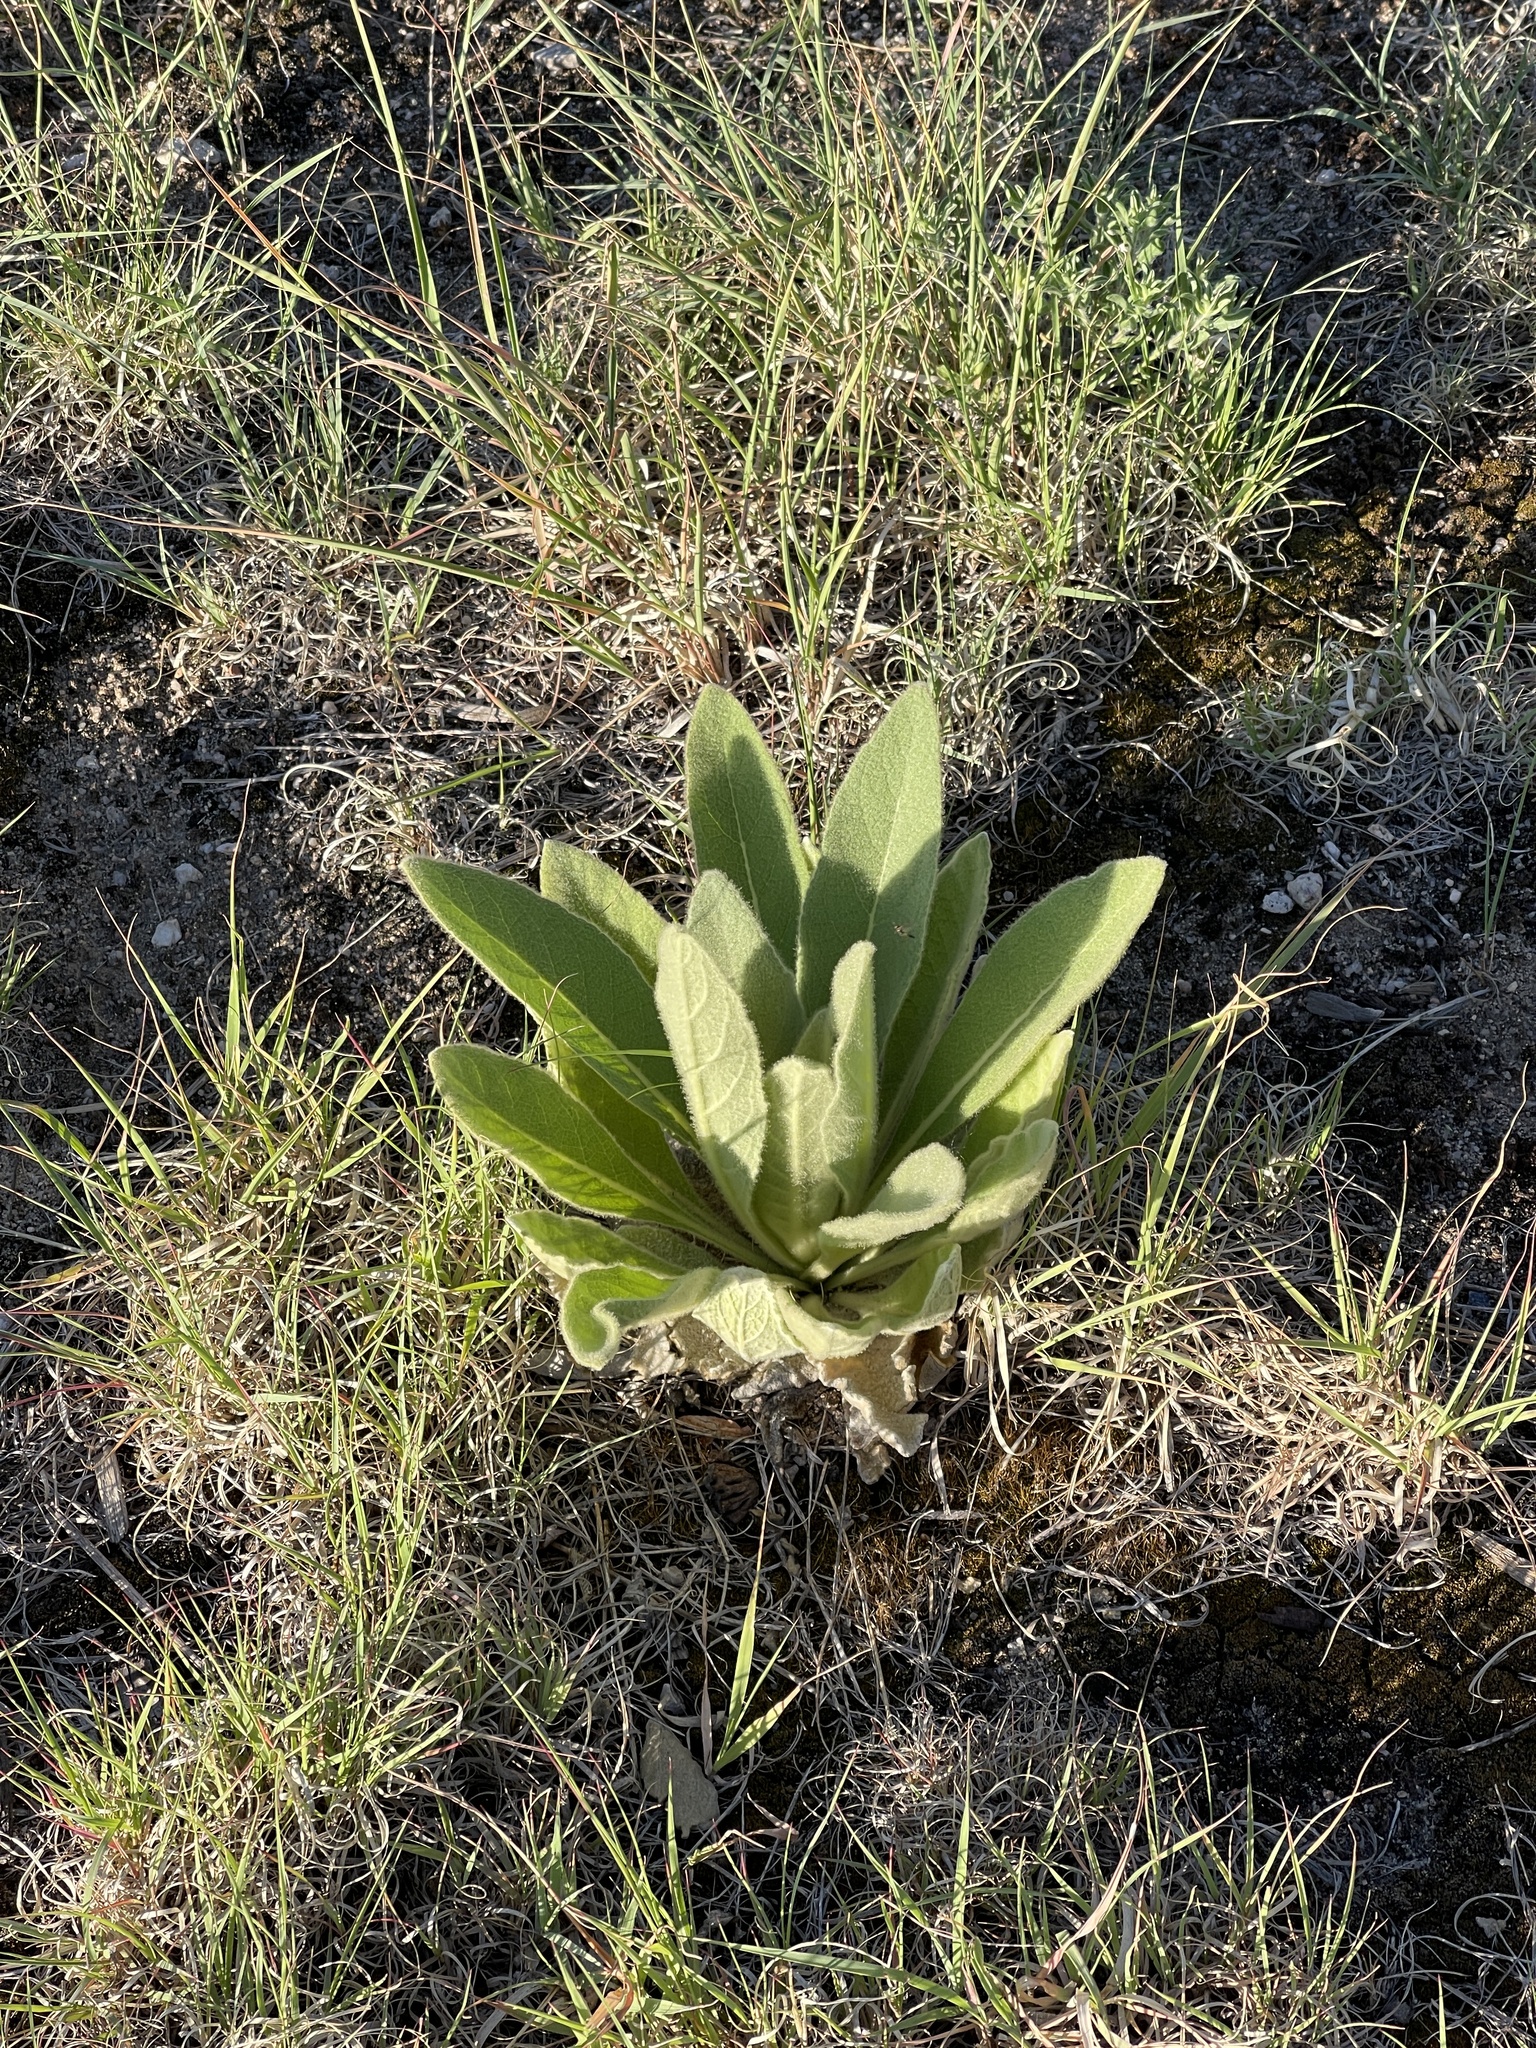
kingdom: Plantae
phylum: Tracheophyta
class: Magnoliopsida
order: Lamiales
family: Scrophulariaceae
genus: Verbascum
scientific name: Verbascum thapsus
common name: Common mullein
